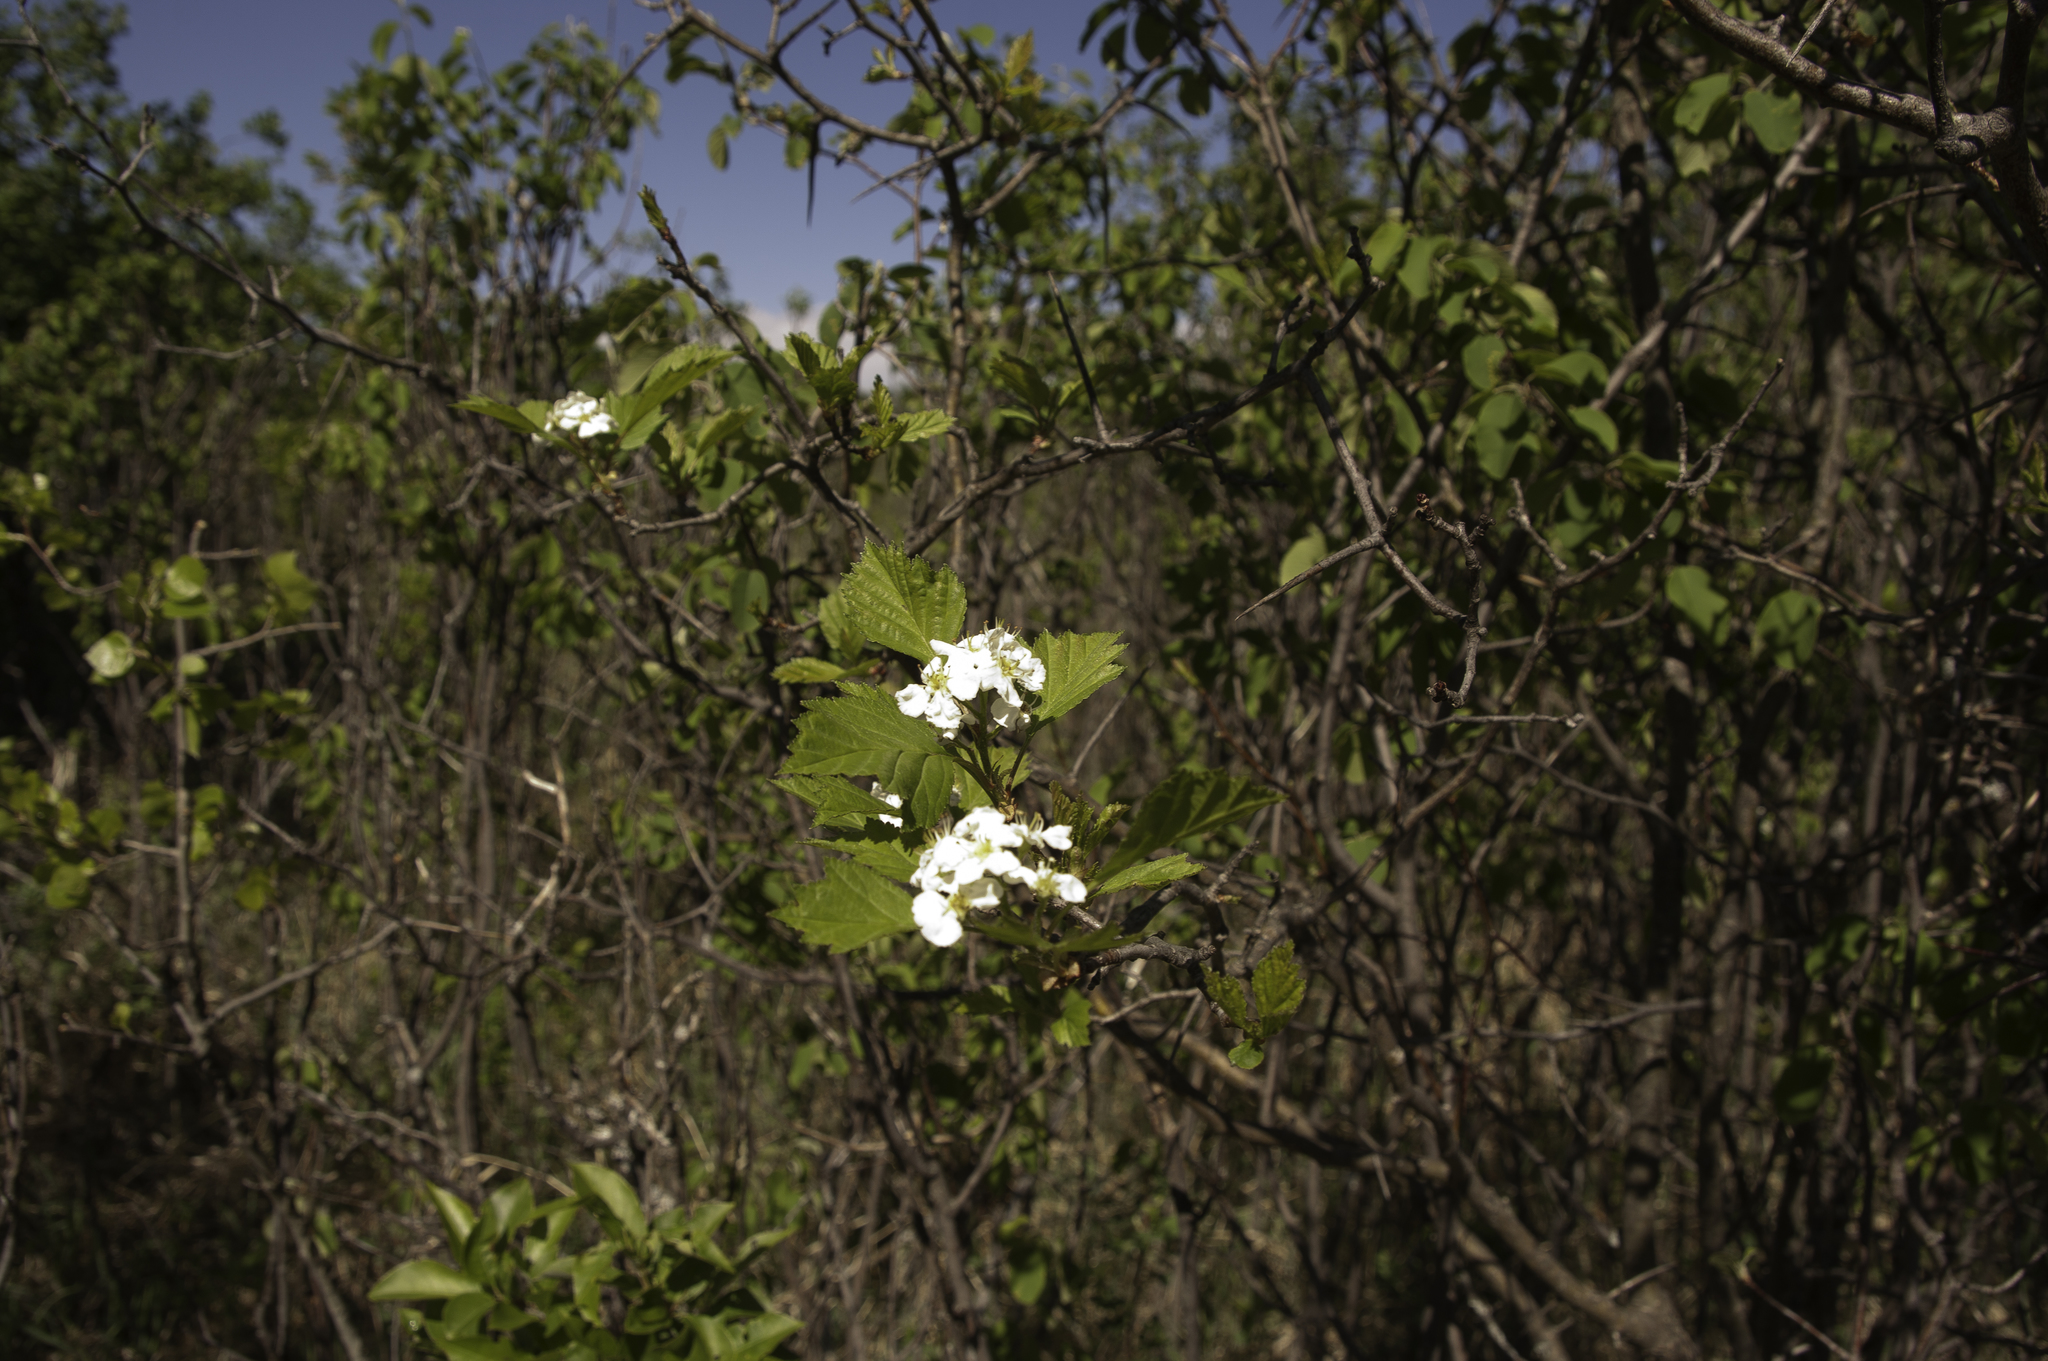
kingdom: Plantae
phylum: Tracheophyta
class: Magnoliopsida
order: Rosales
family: Rosaceae
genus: Crataegus
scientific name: Crataegus chrysocarpa
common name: Fire-berry hawthorn
